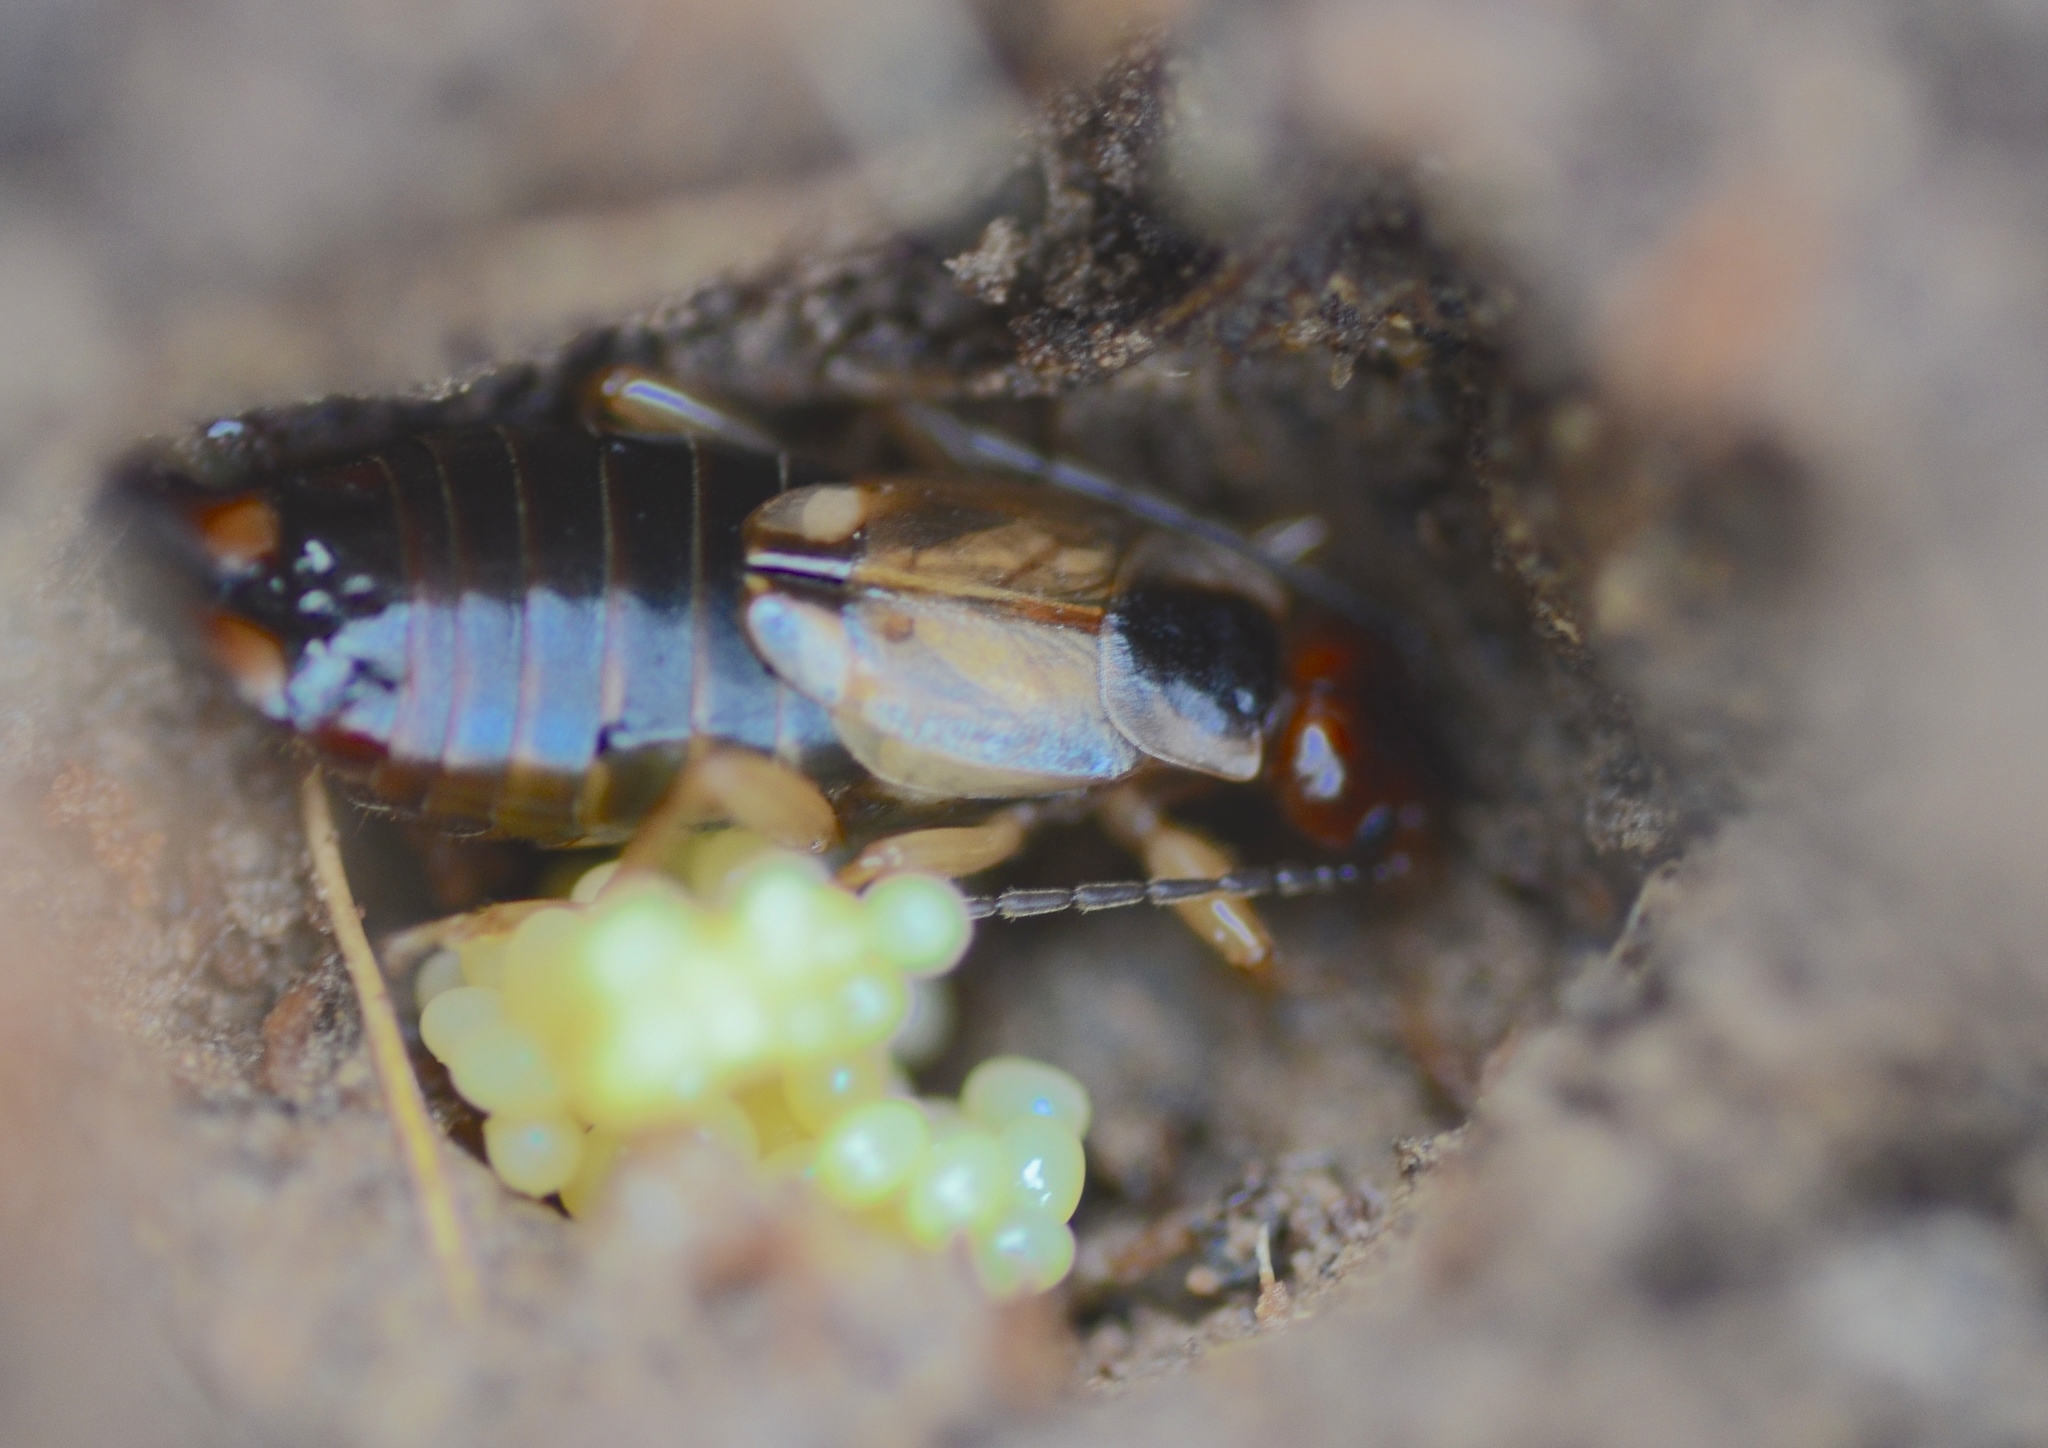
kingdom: Animalia
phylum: Arthropoda
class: Insecta
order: Dermaptera
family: Forficulidae
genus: Forficula
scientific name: Forficula
